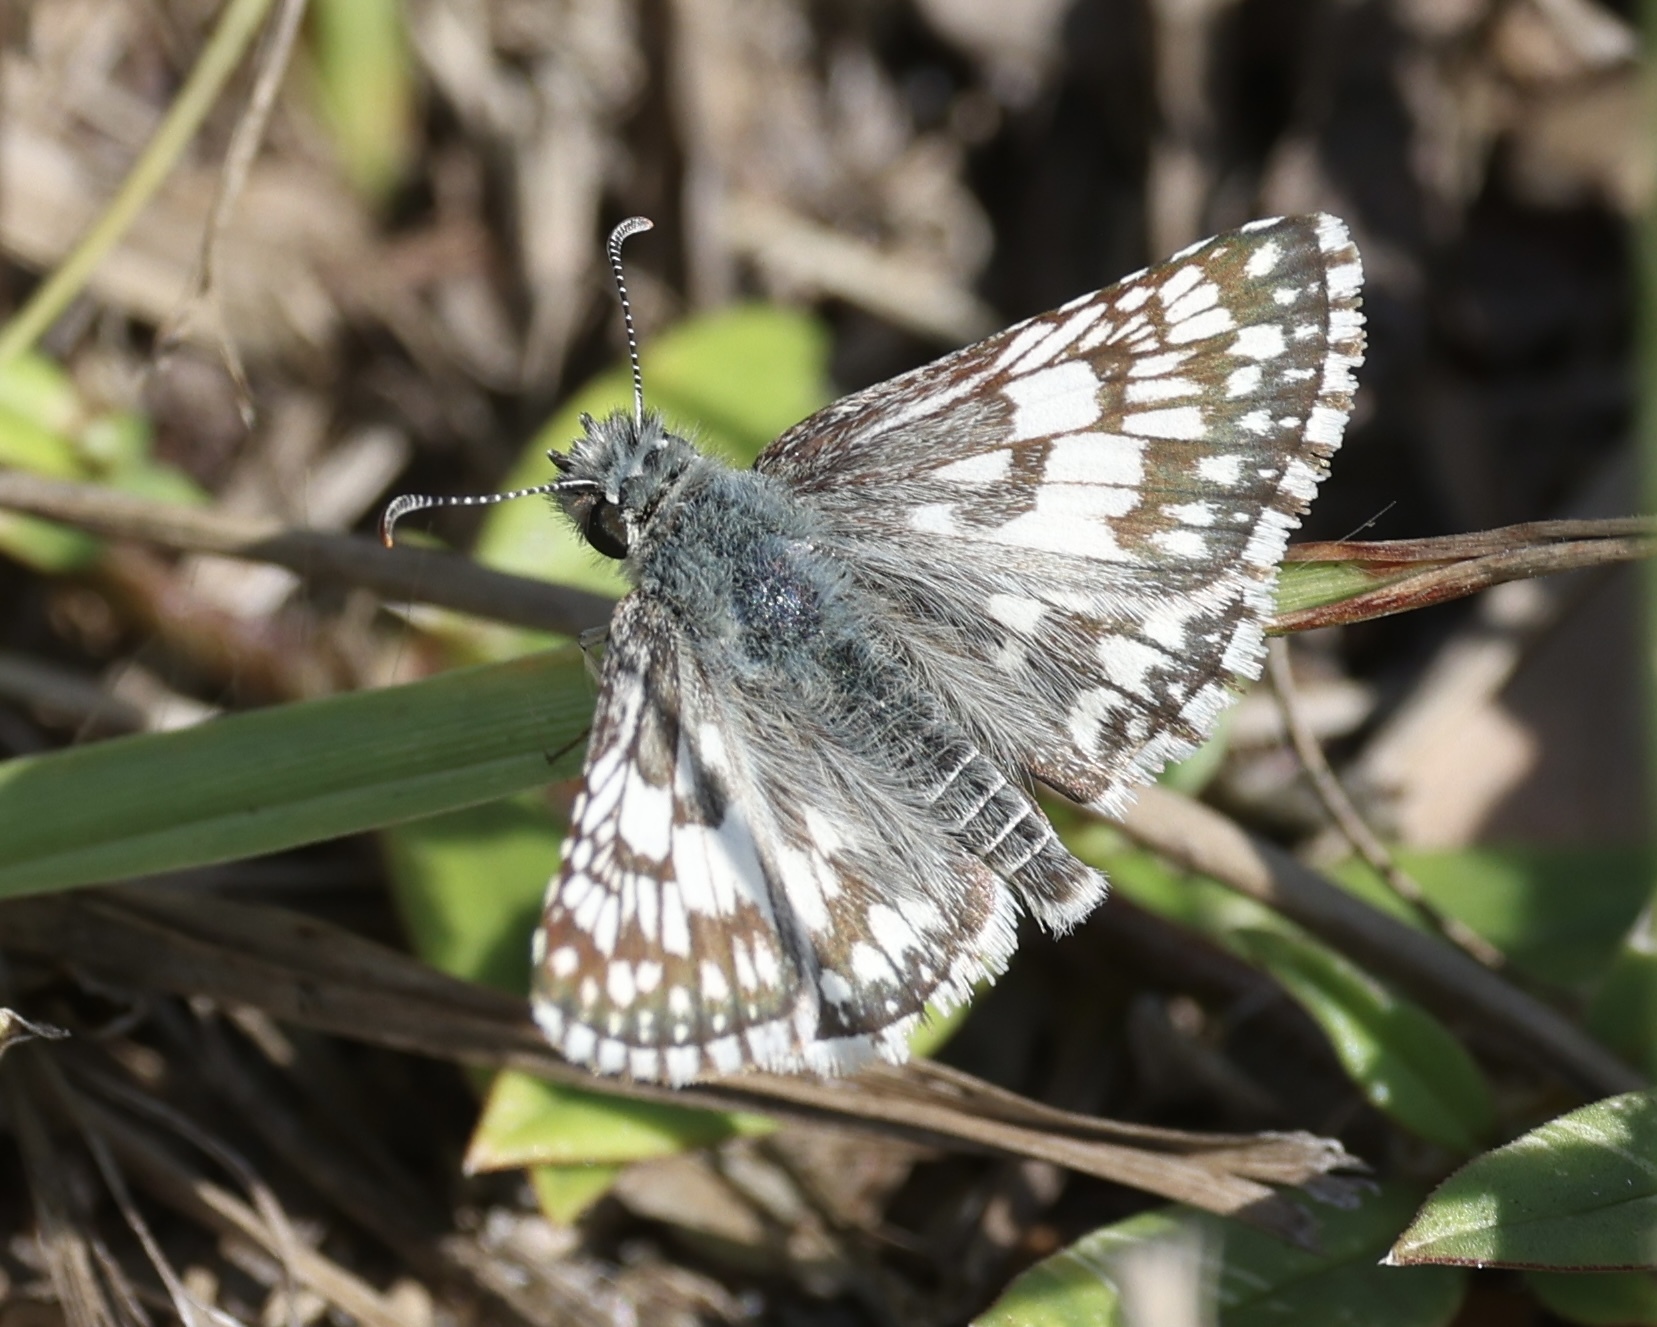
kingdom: Animalia
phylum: Arthropoda
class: Insecta
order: Lepidoptera
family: Hesperiidae
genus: Burnsius
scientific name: Burnsius albezens
